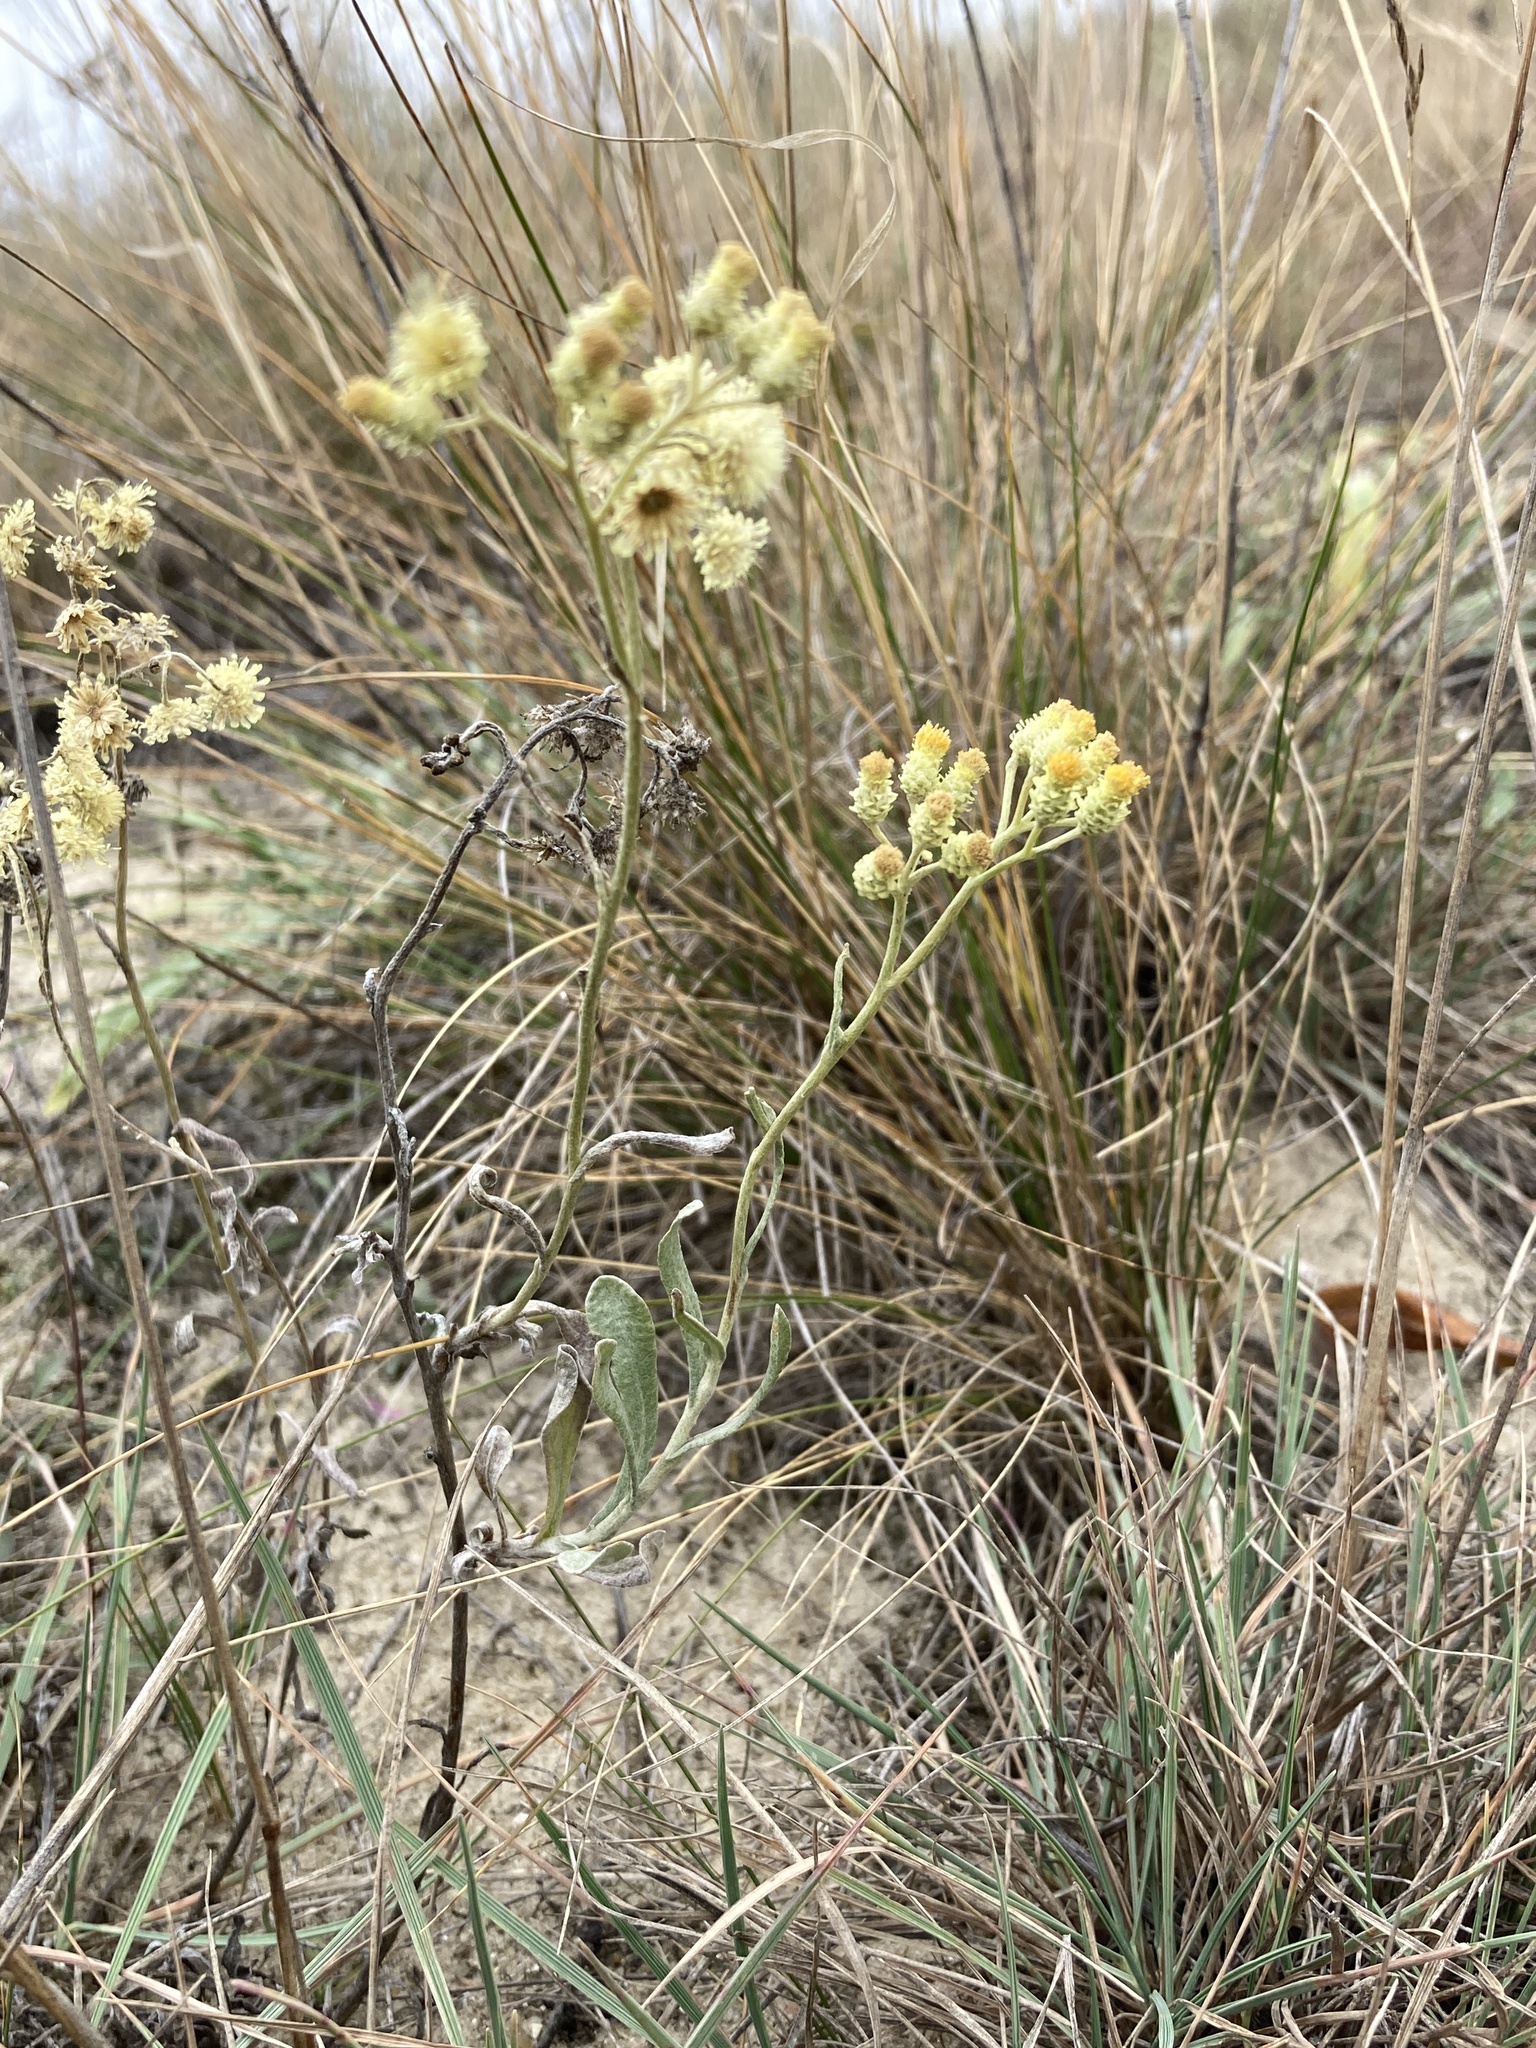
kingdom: Plantae
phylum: Tracheophyta
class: Magnoliopsida
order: Asterales
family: Asteraceae
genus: Helichrysum
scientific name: Helichrysum arenarium
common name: Strawflower
